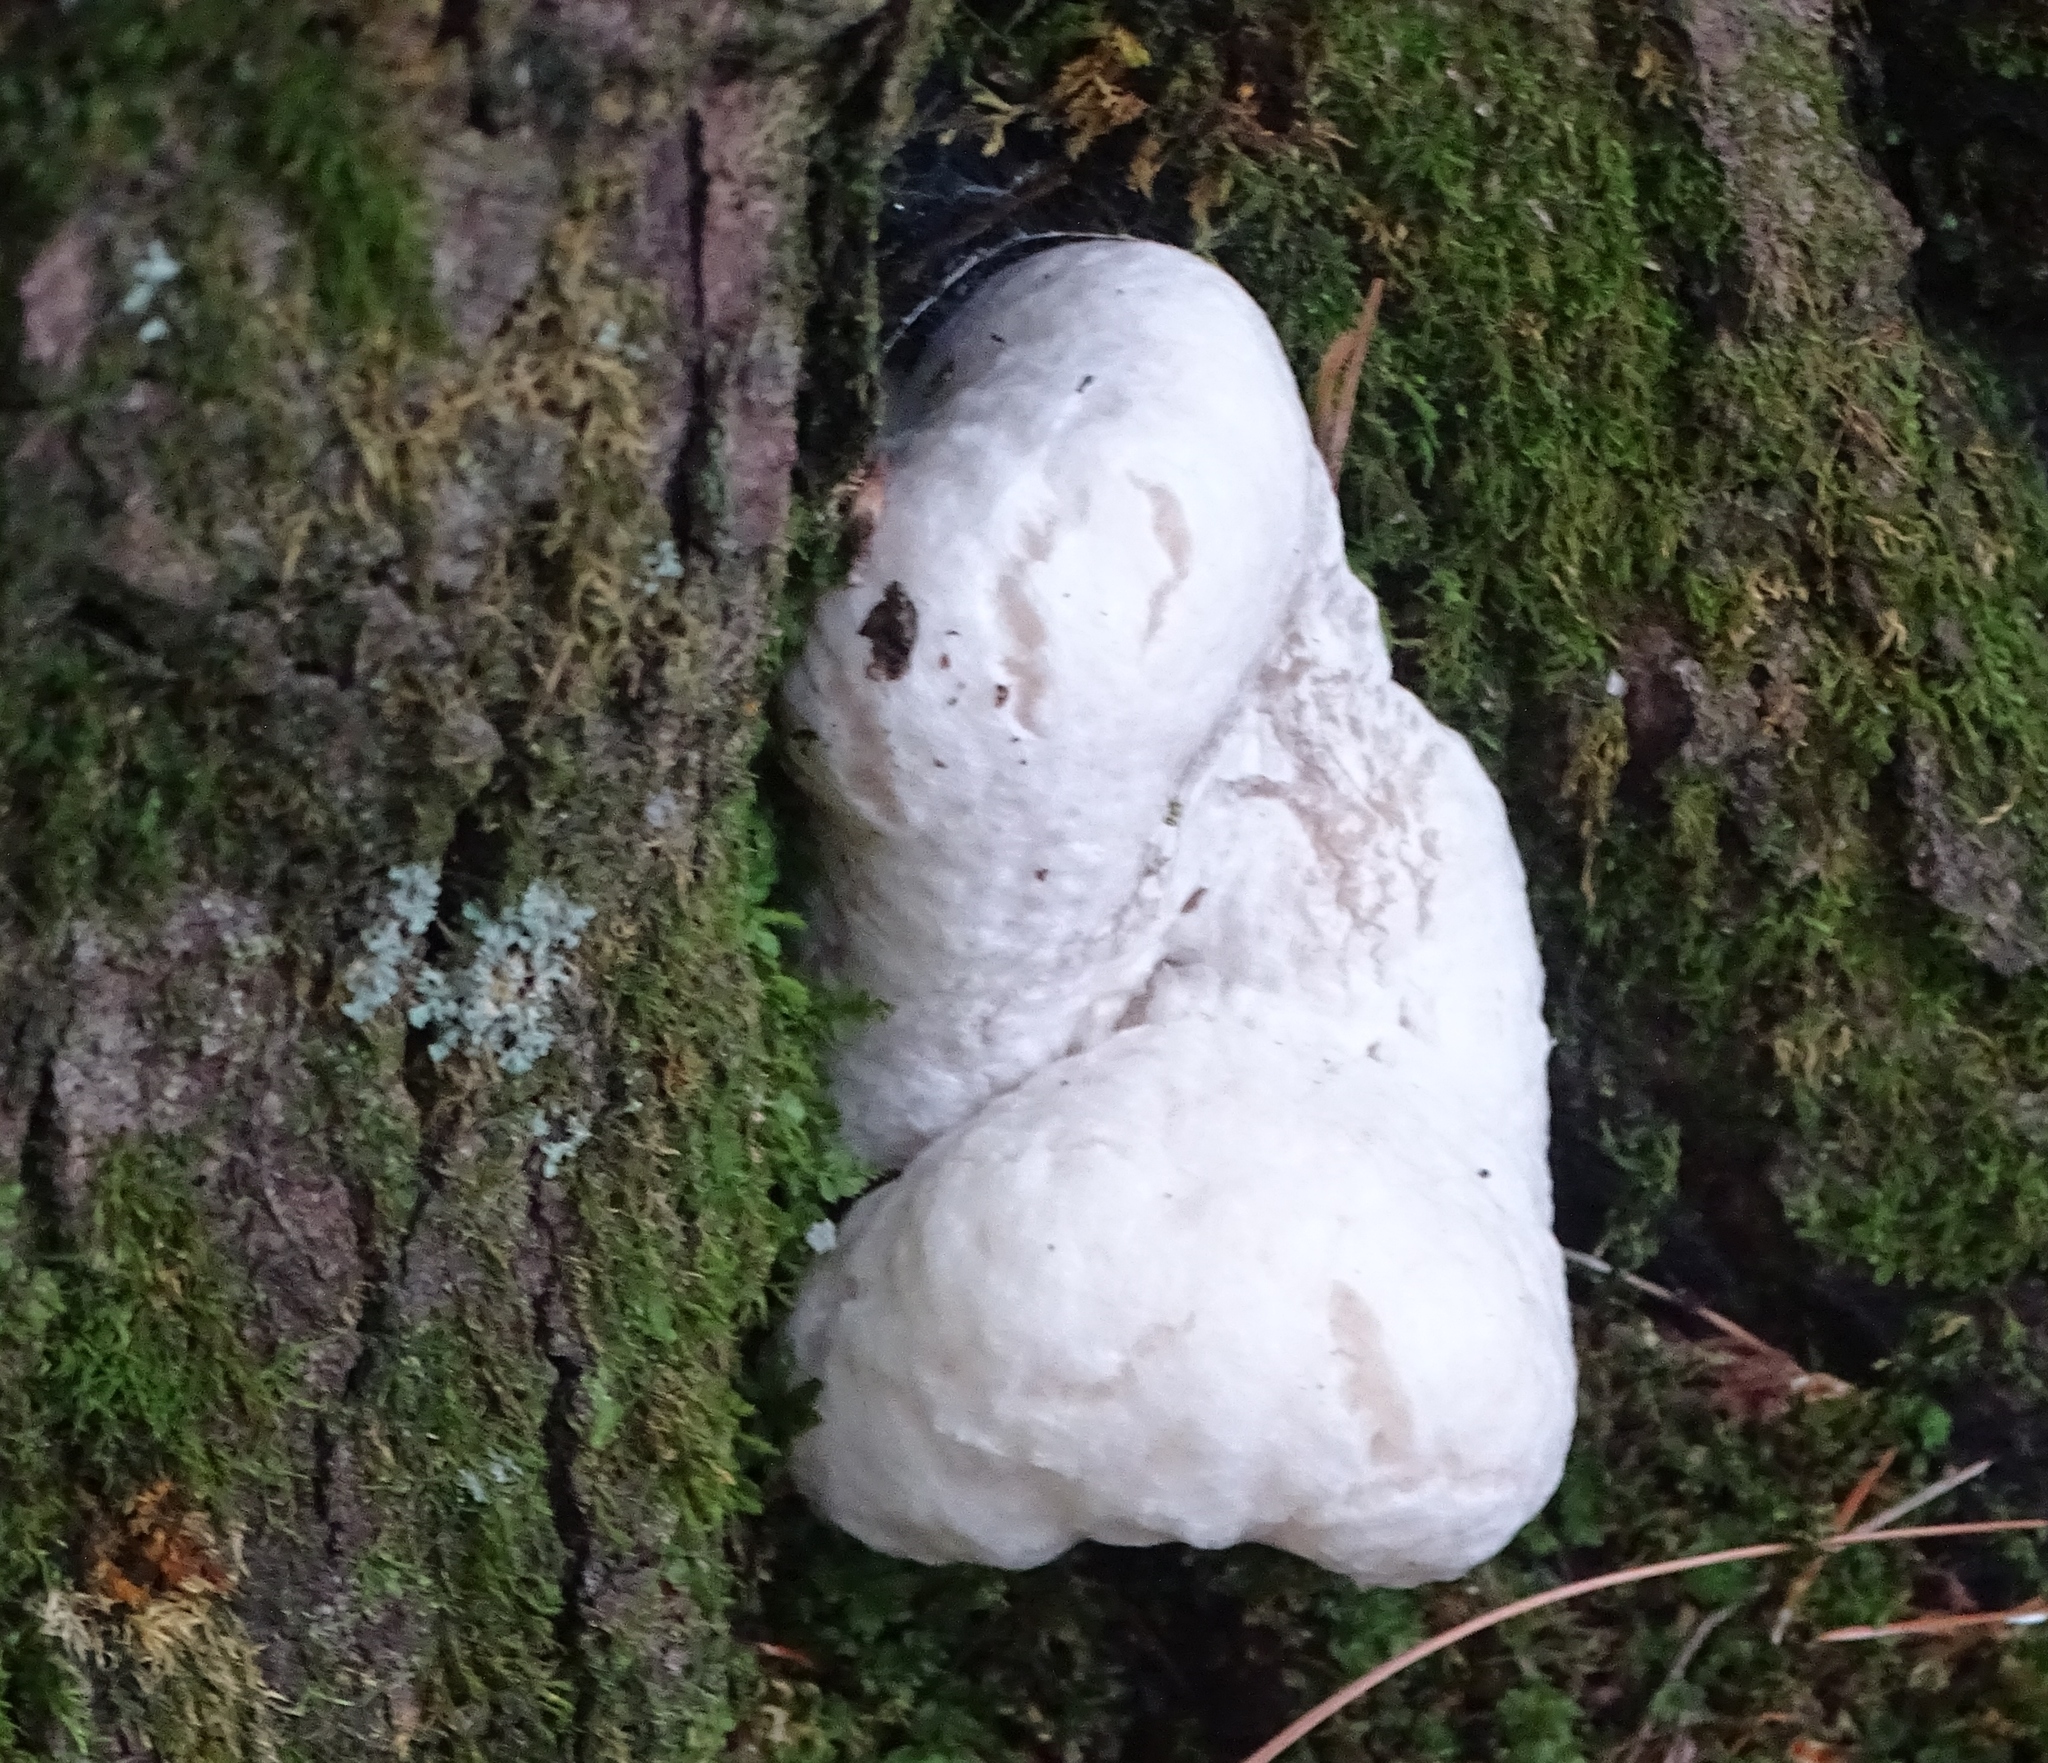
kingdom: Fungi
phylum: Basidiomycota
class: Agaricomycetes
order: Agaricales
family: Entolomataceae
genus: Entoloma
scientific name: Entoloma abortivum
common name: Aborted entoloma
